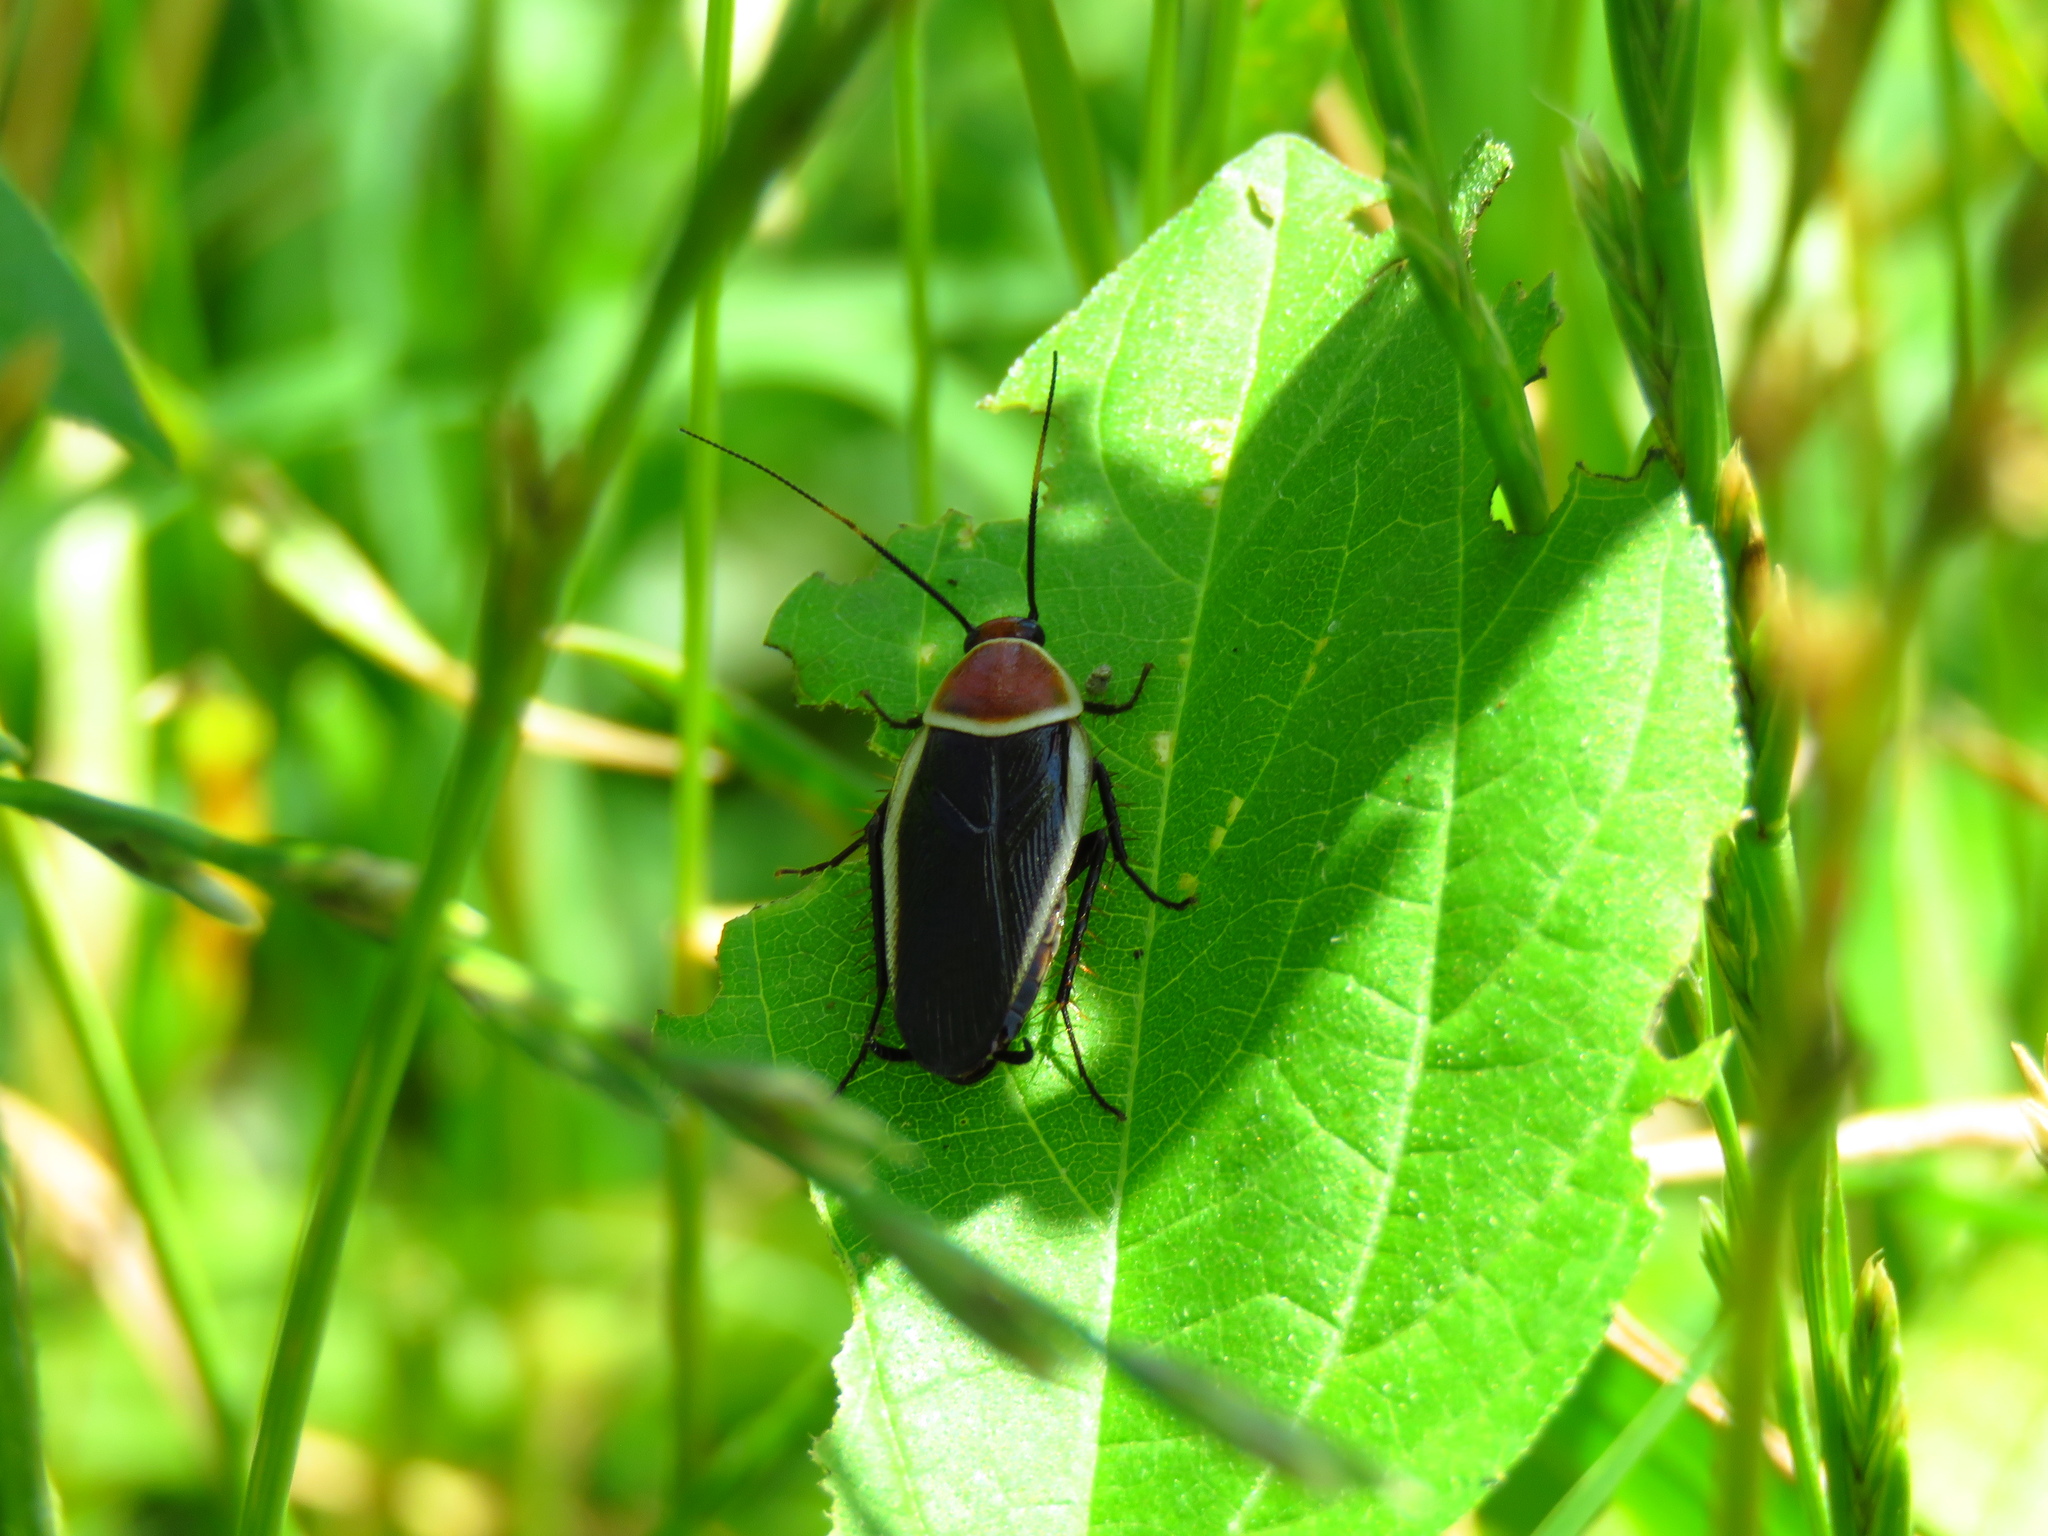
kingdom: Animalia
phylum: Arthropoda
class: Insecta
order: Blattodea
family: Ectobiidae
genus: Pseudomops
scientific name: Pseudomops septentrionalis
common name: Pale-bordered field cockroach
